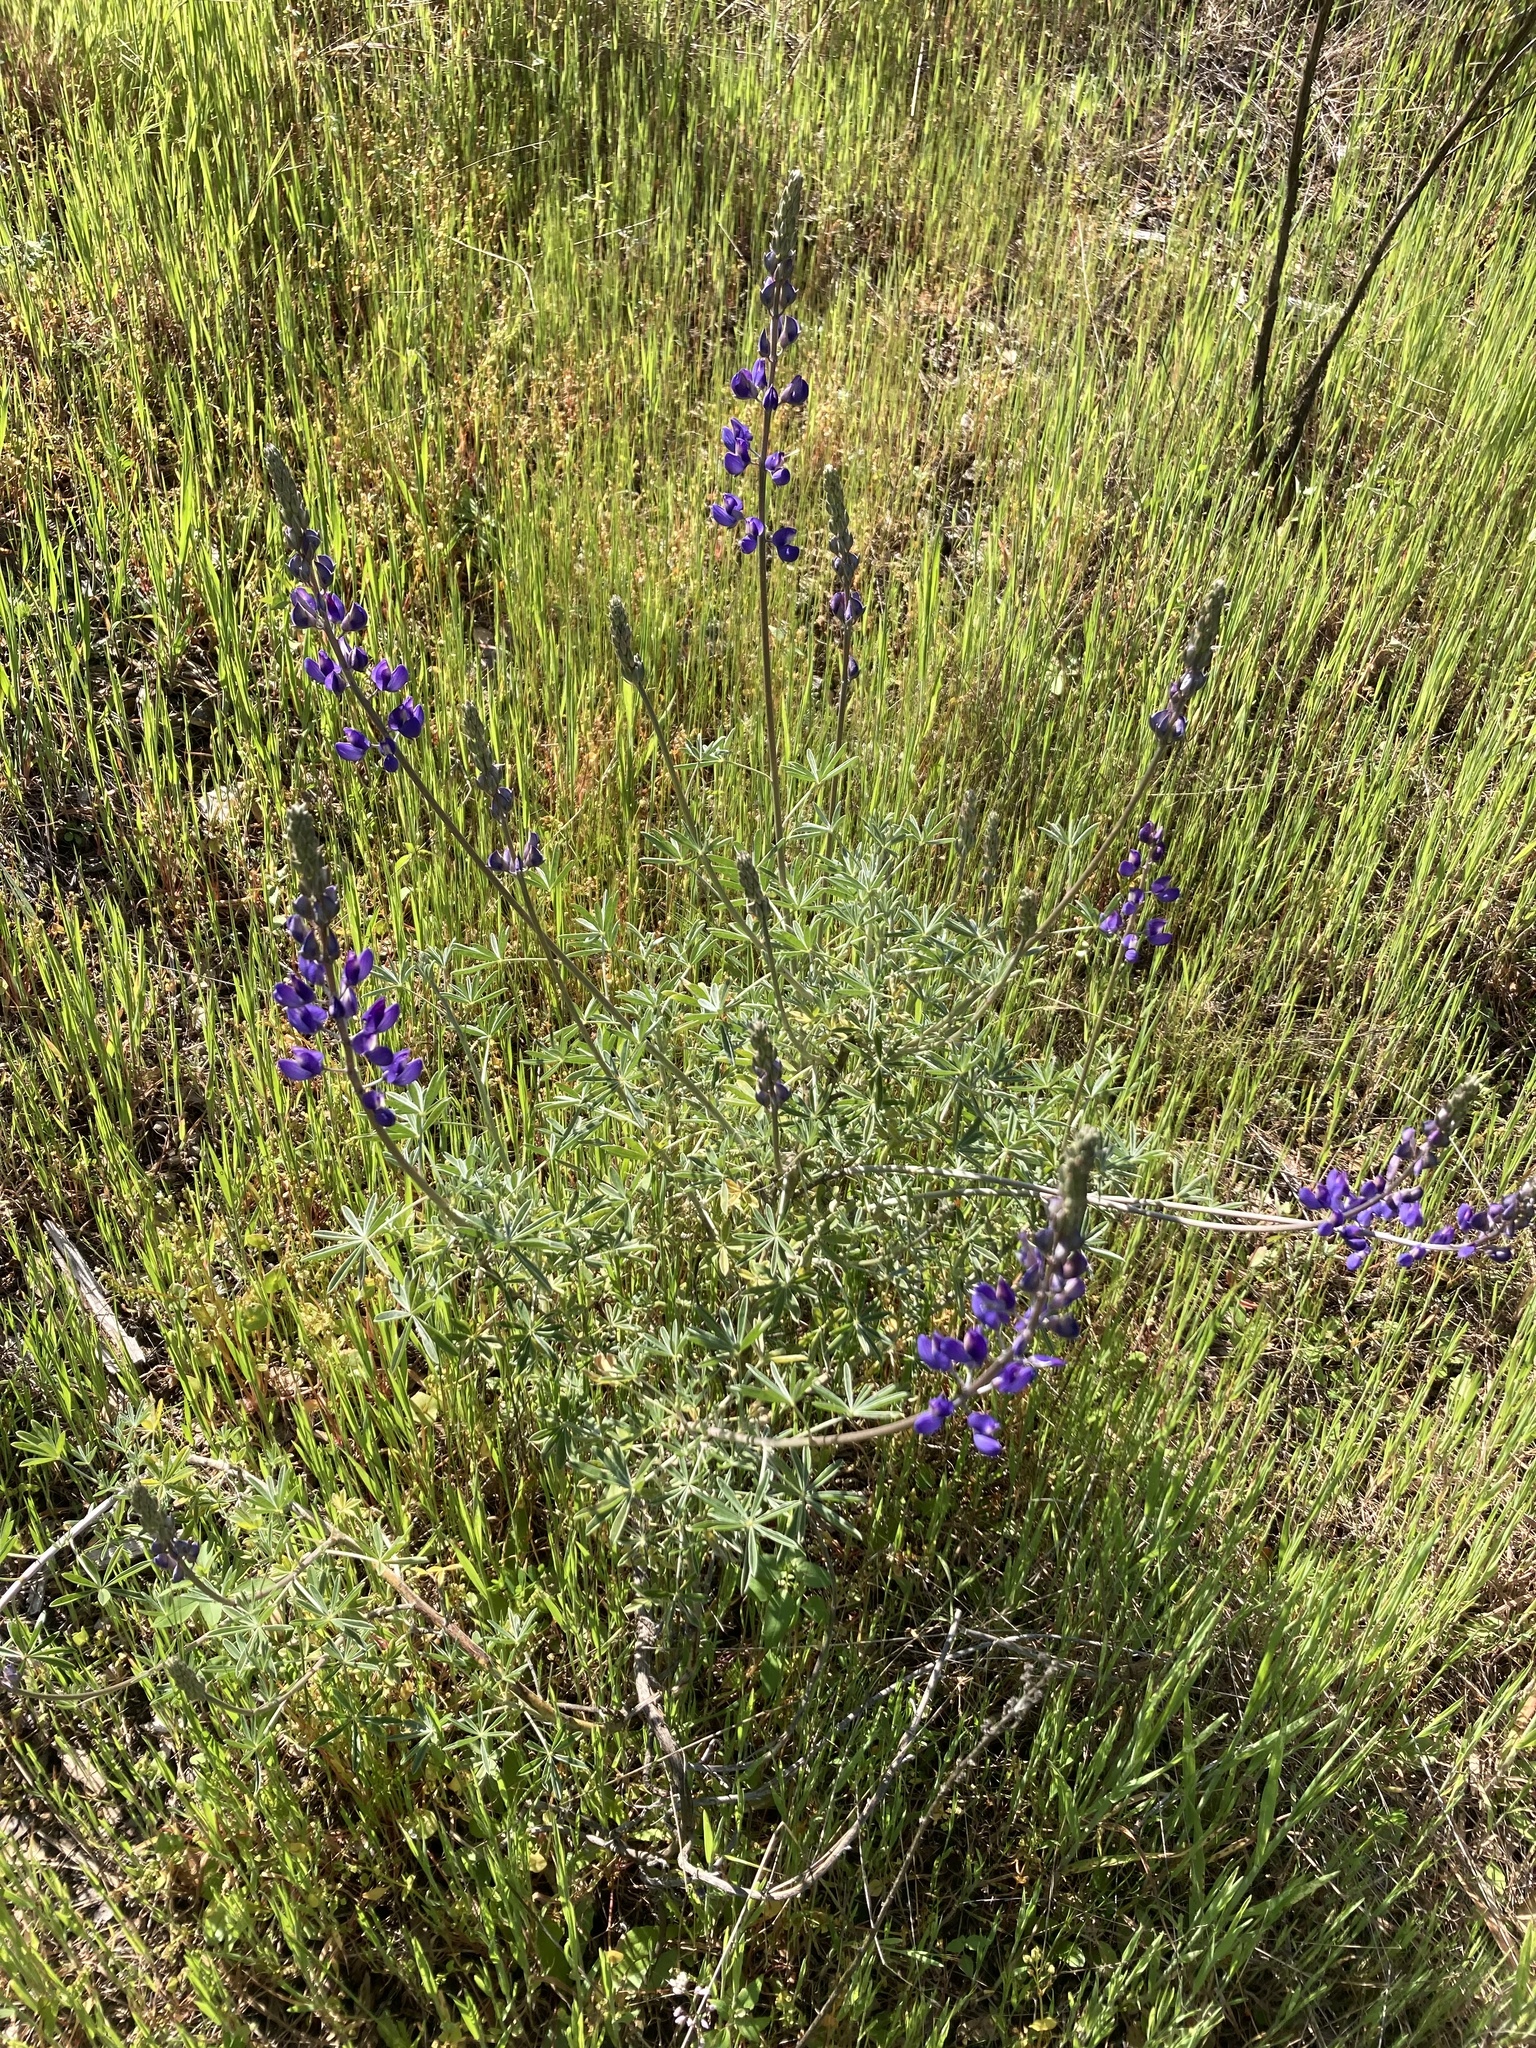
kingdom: Plantae
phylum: Tracheophyta
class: Magnoliopsida
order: Fabales
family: Fabaceae
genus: Lupinus
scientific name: Lupinus albifrons
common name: Foothill lupine
